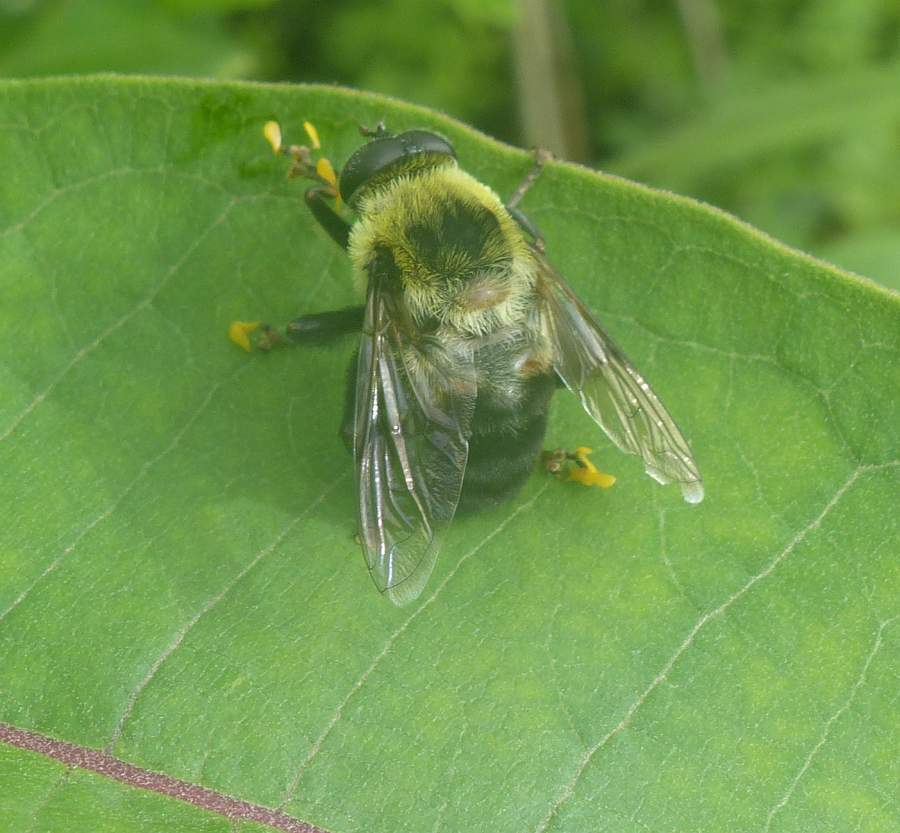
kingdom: Animalia
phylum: Arthropoda
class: Insecta
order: Diptera
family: Syrphidae
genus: Imatisma
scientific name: Imatisma posticata
